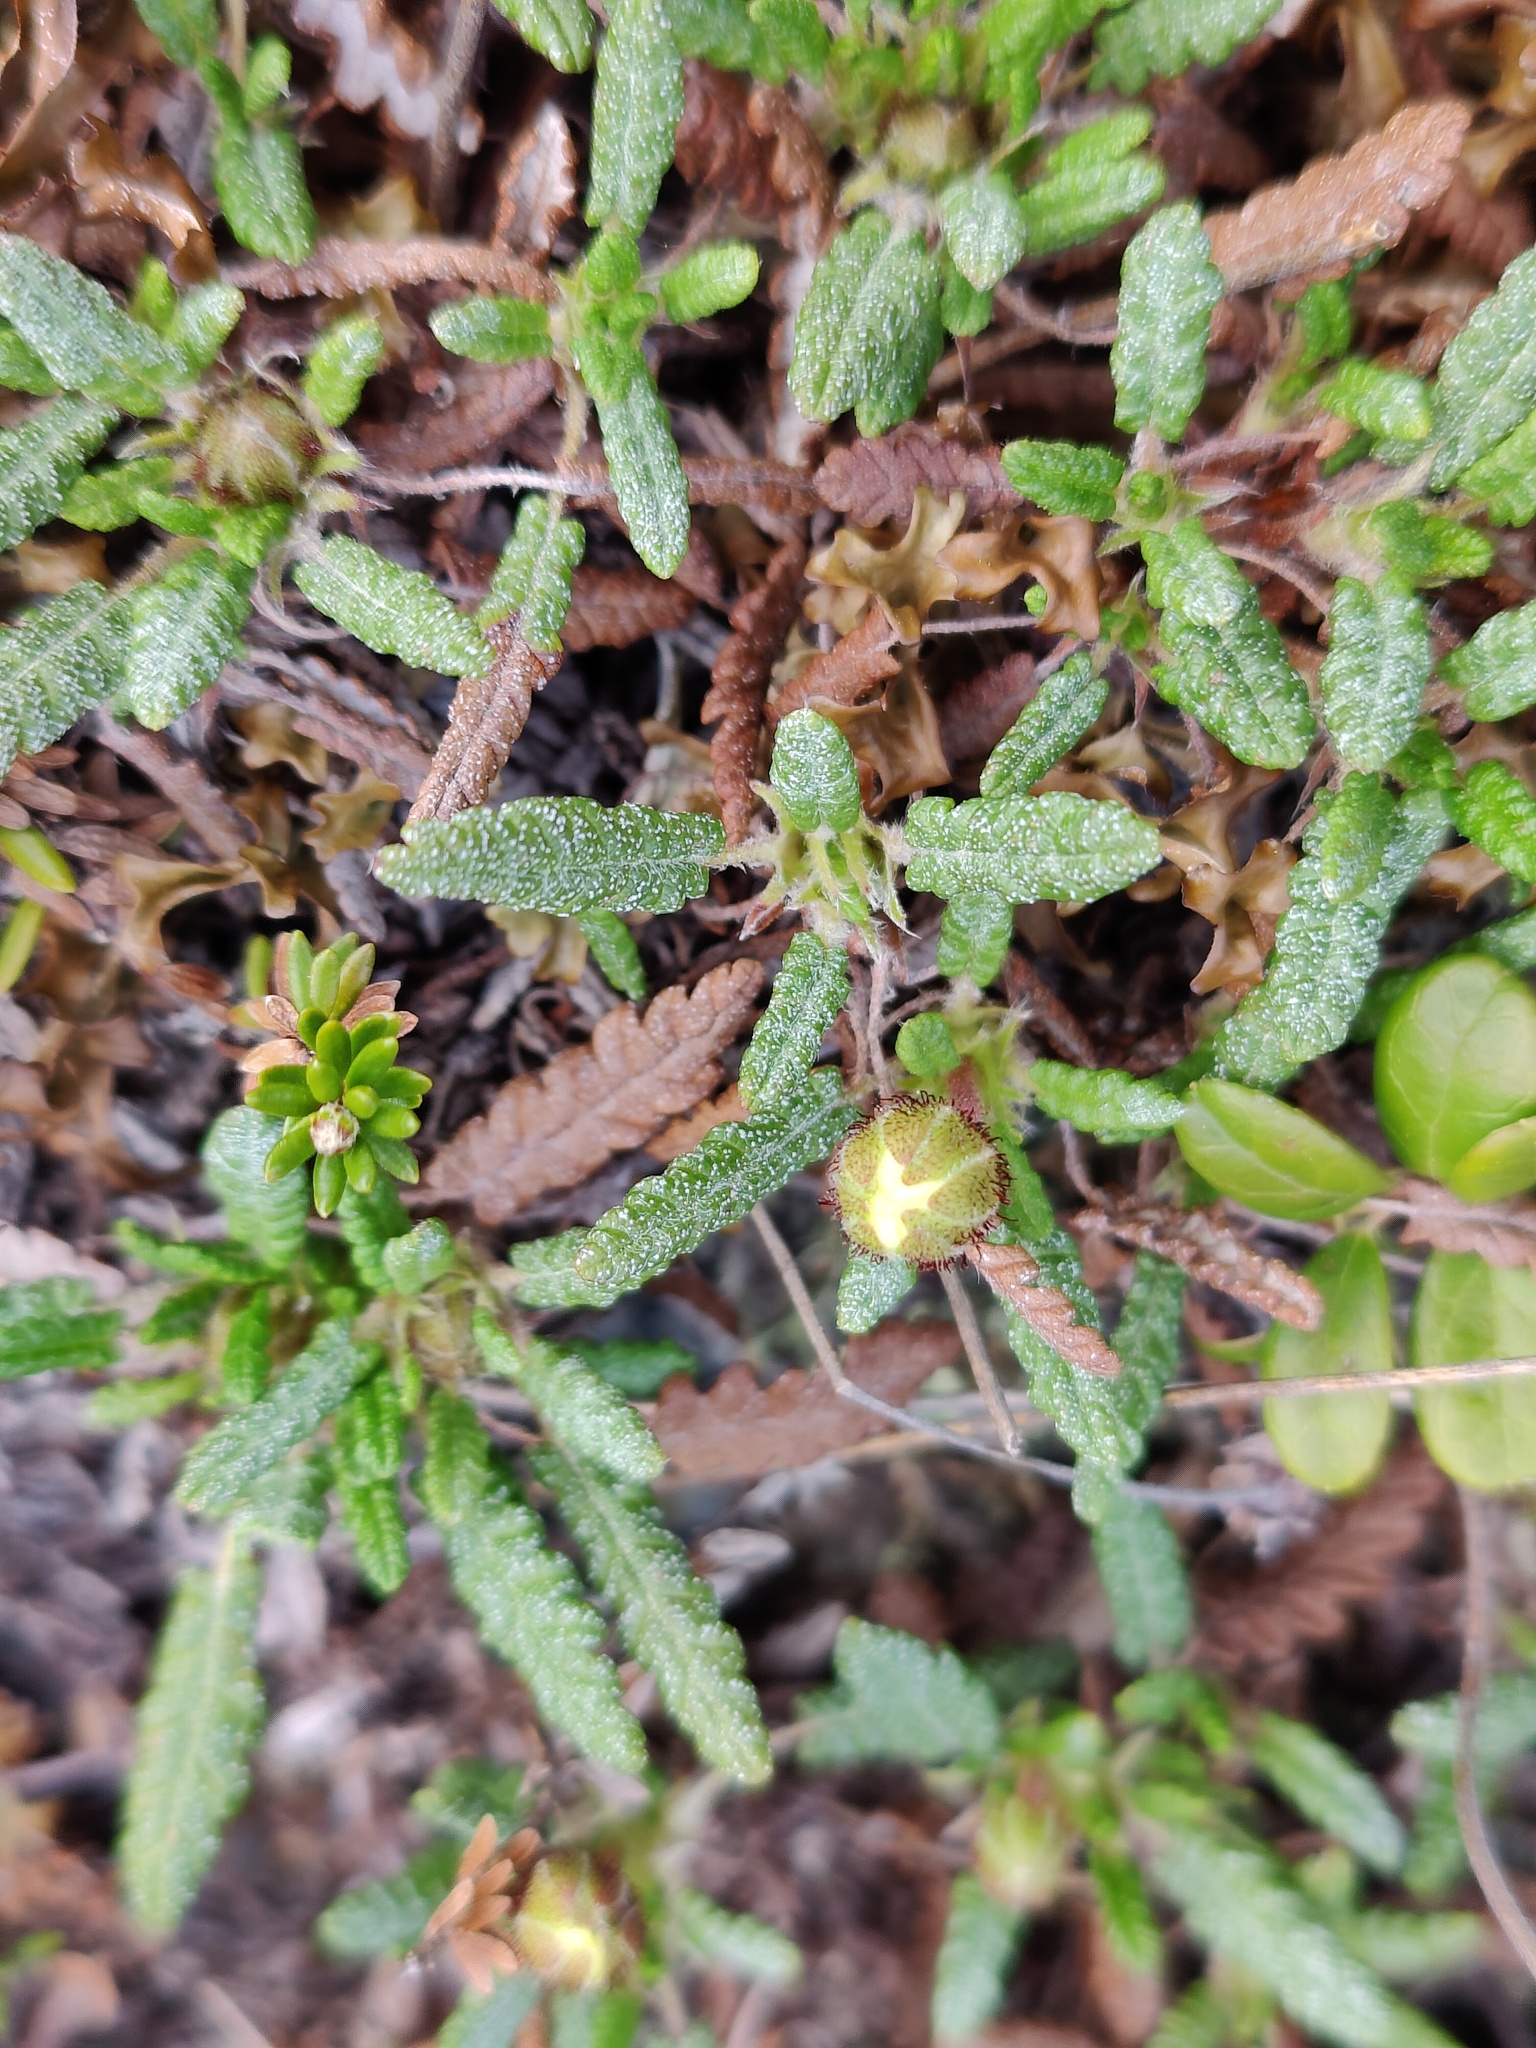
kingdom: Plantae
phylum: Tracheophyta
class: Magnoliopsida
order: Rosales
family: Rosaceae
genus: Dryas
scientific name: Dryas octopetala
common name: Eight-petal mountain-avens
